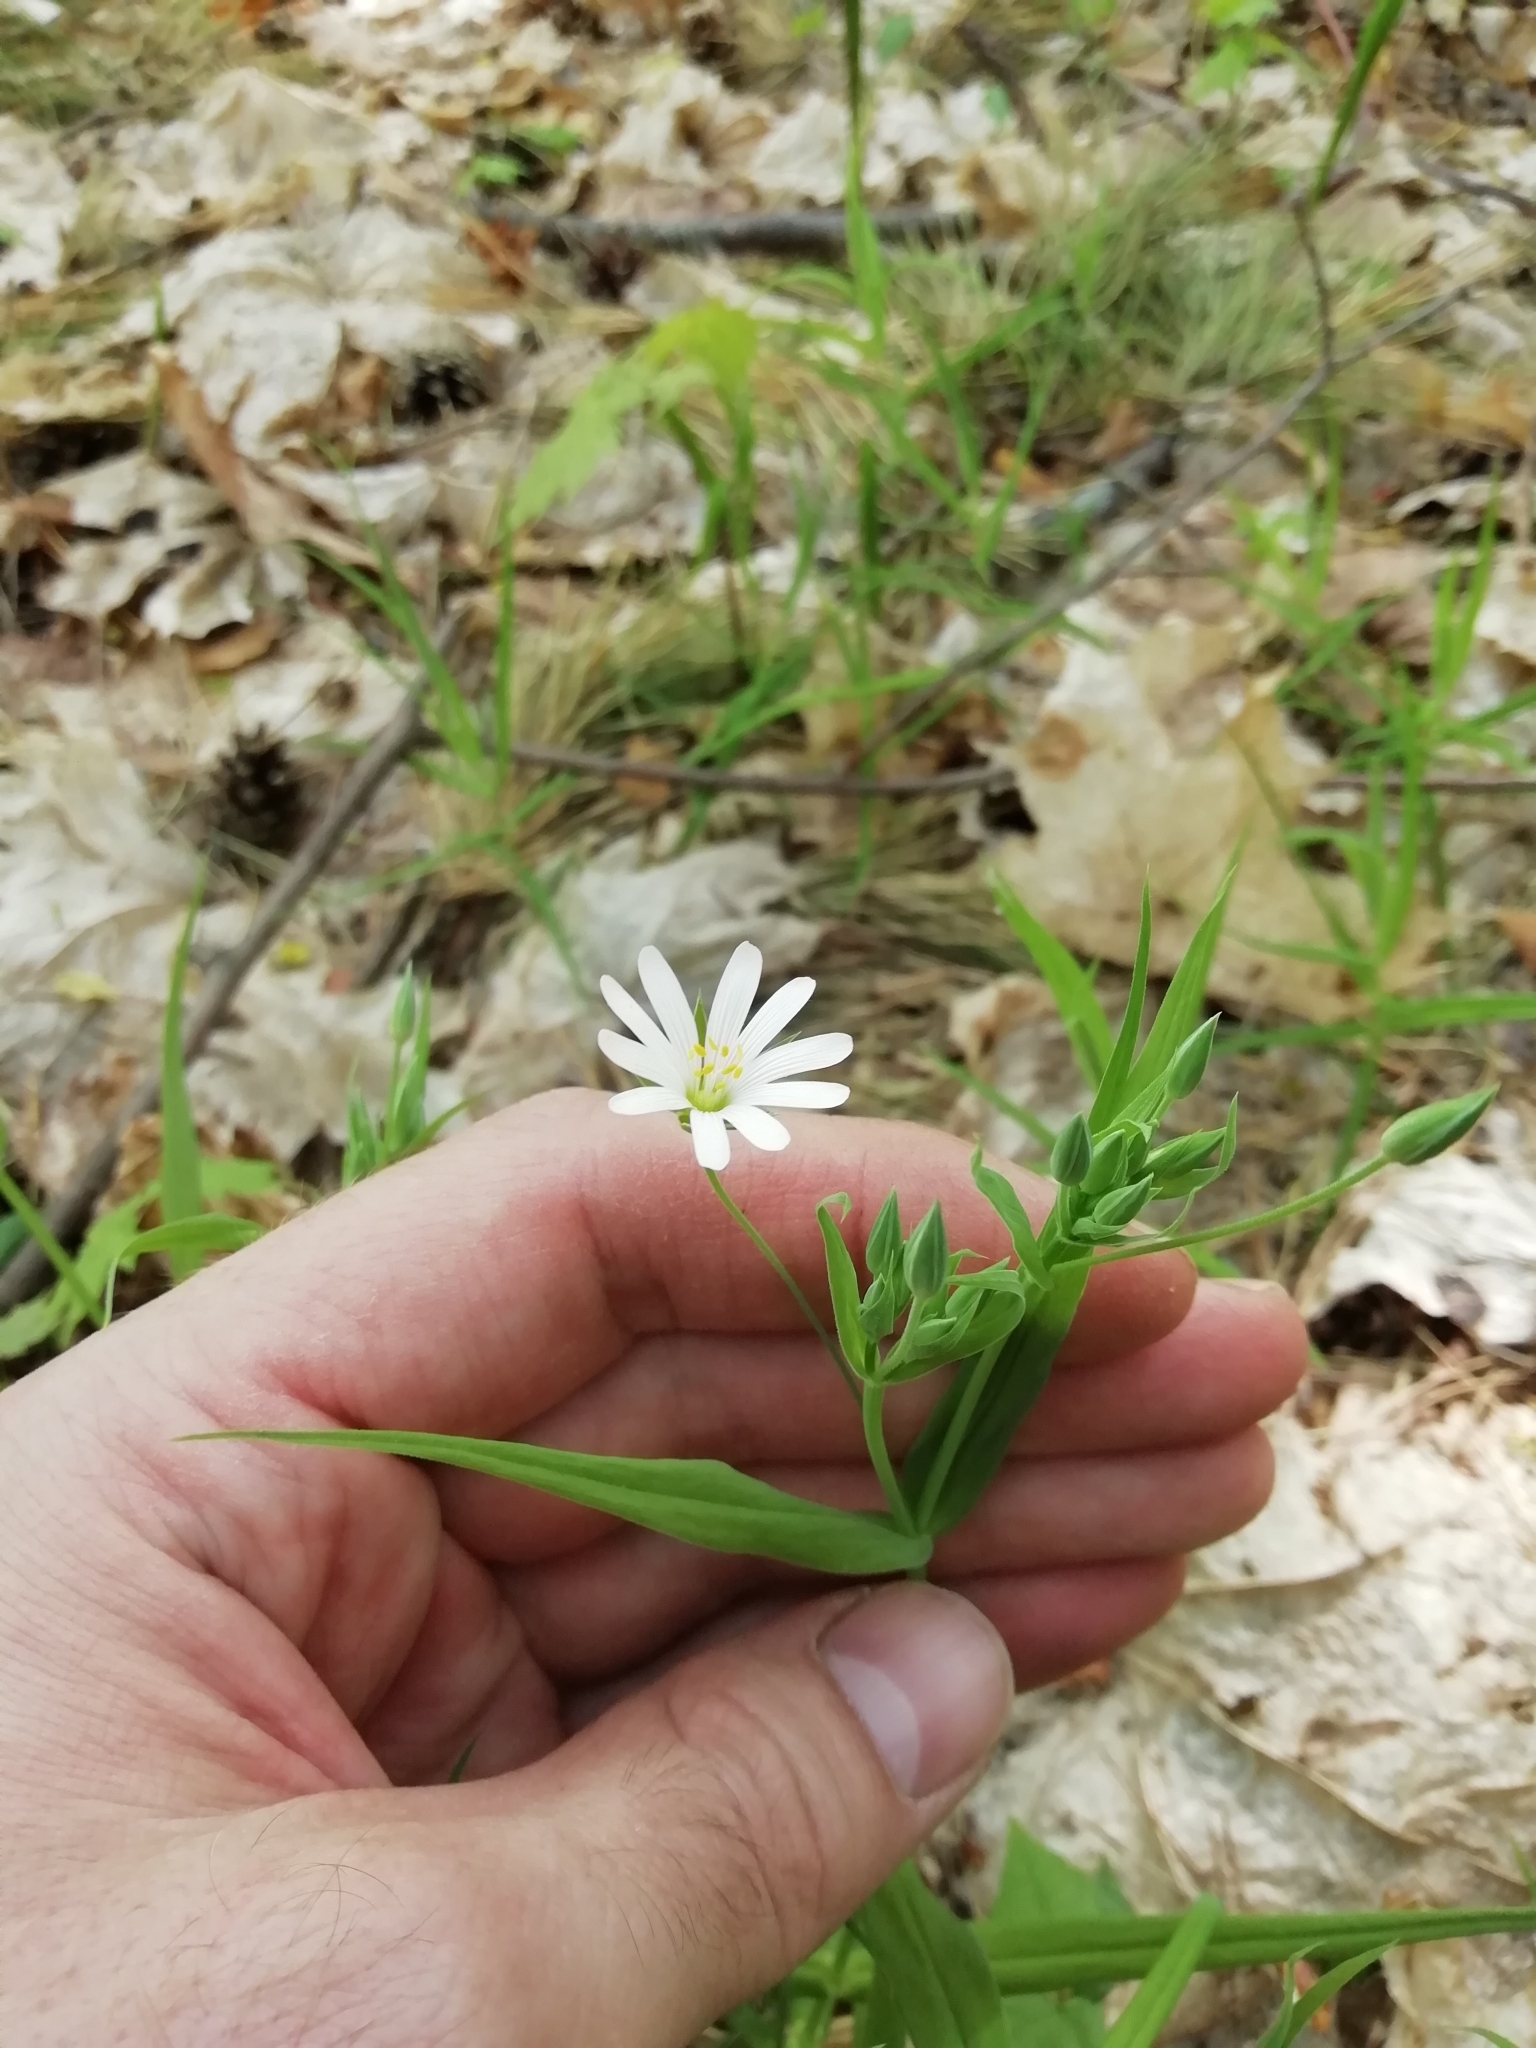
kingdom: Plantae
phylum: Tracheophyta
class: Magnoliopsida
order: Caryophyllales
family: Caryophyllaceae
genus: Rabelera
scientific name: Rabelera holostea
